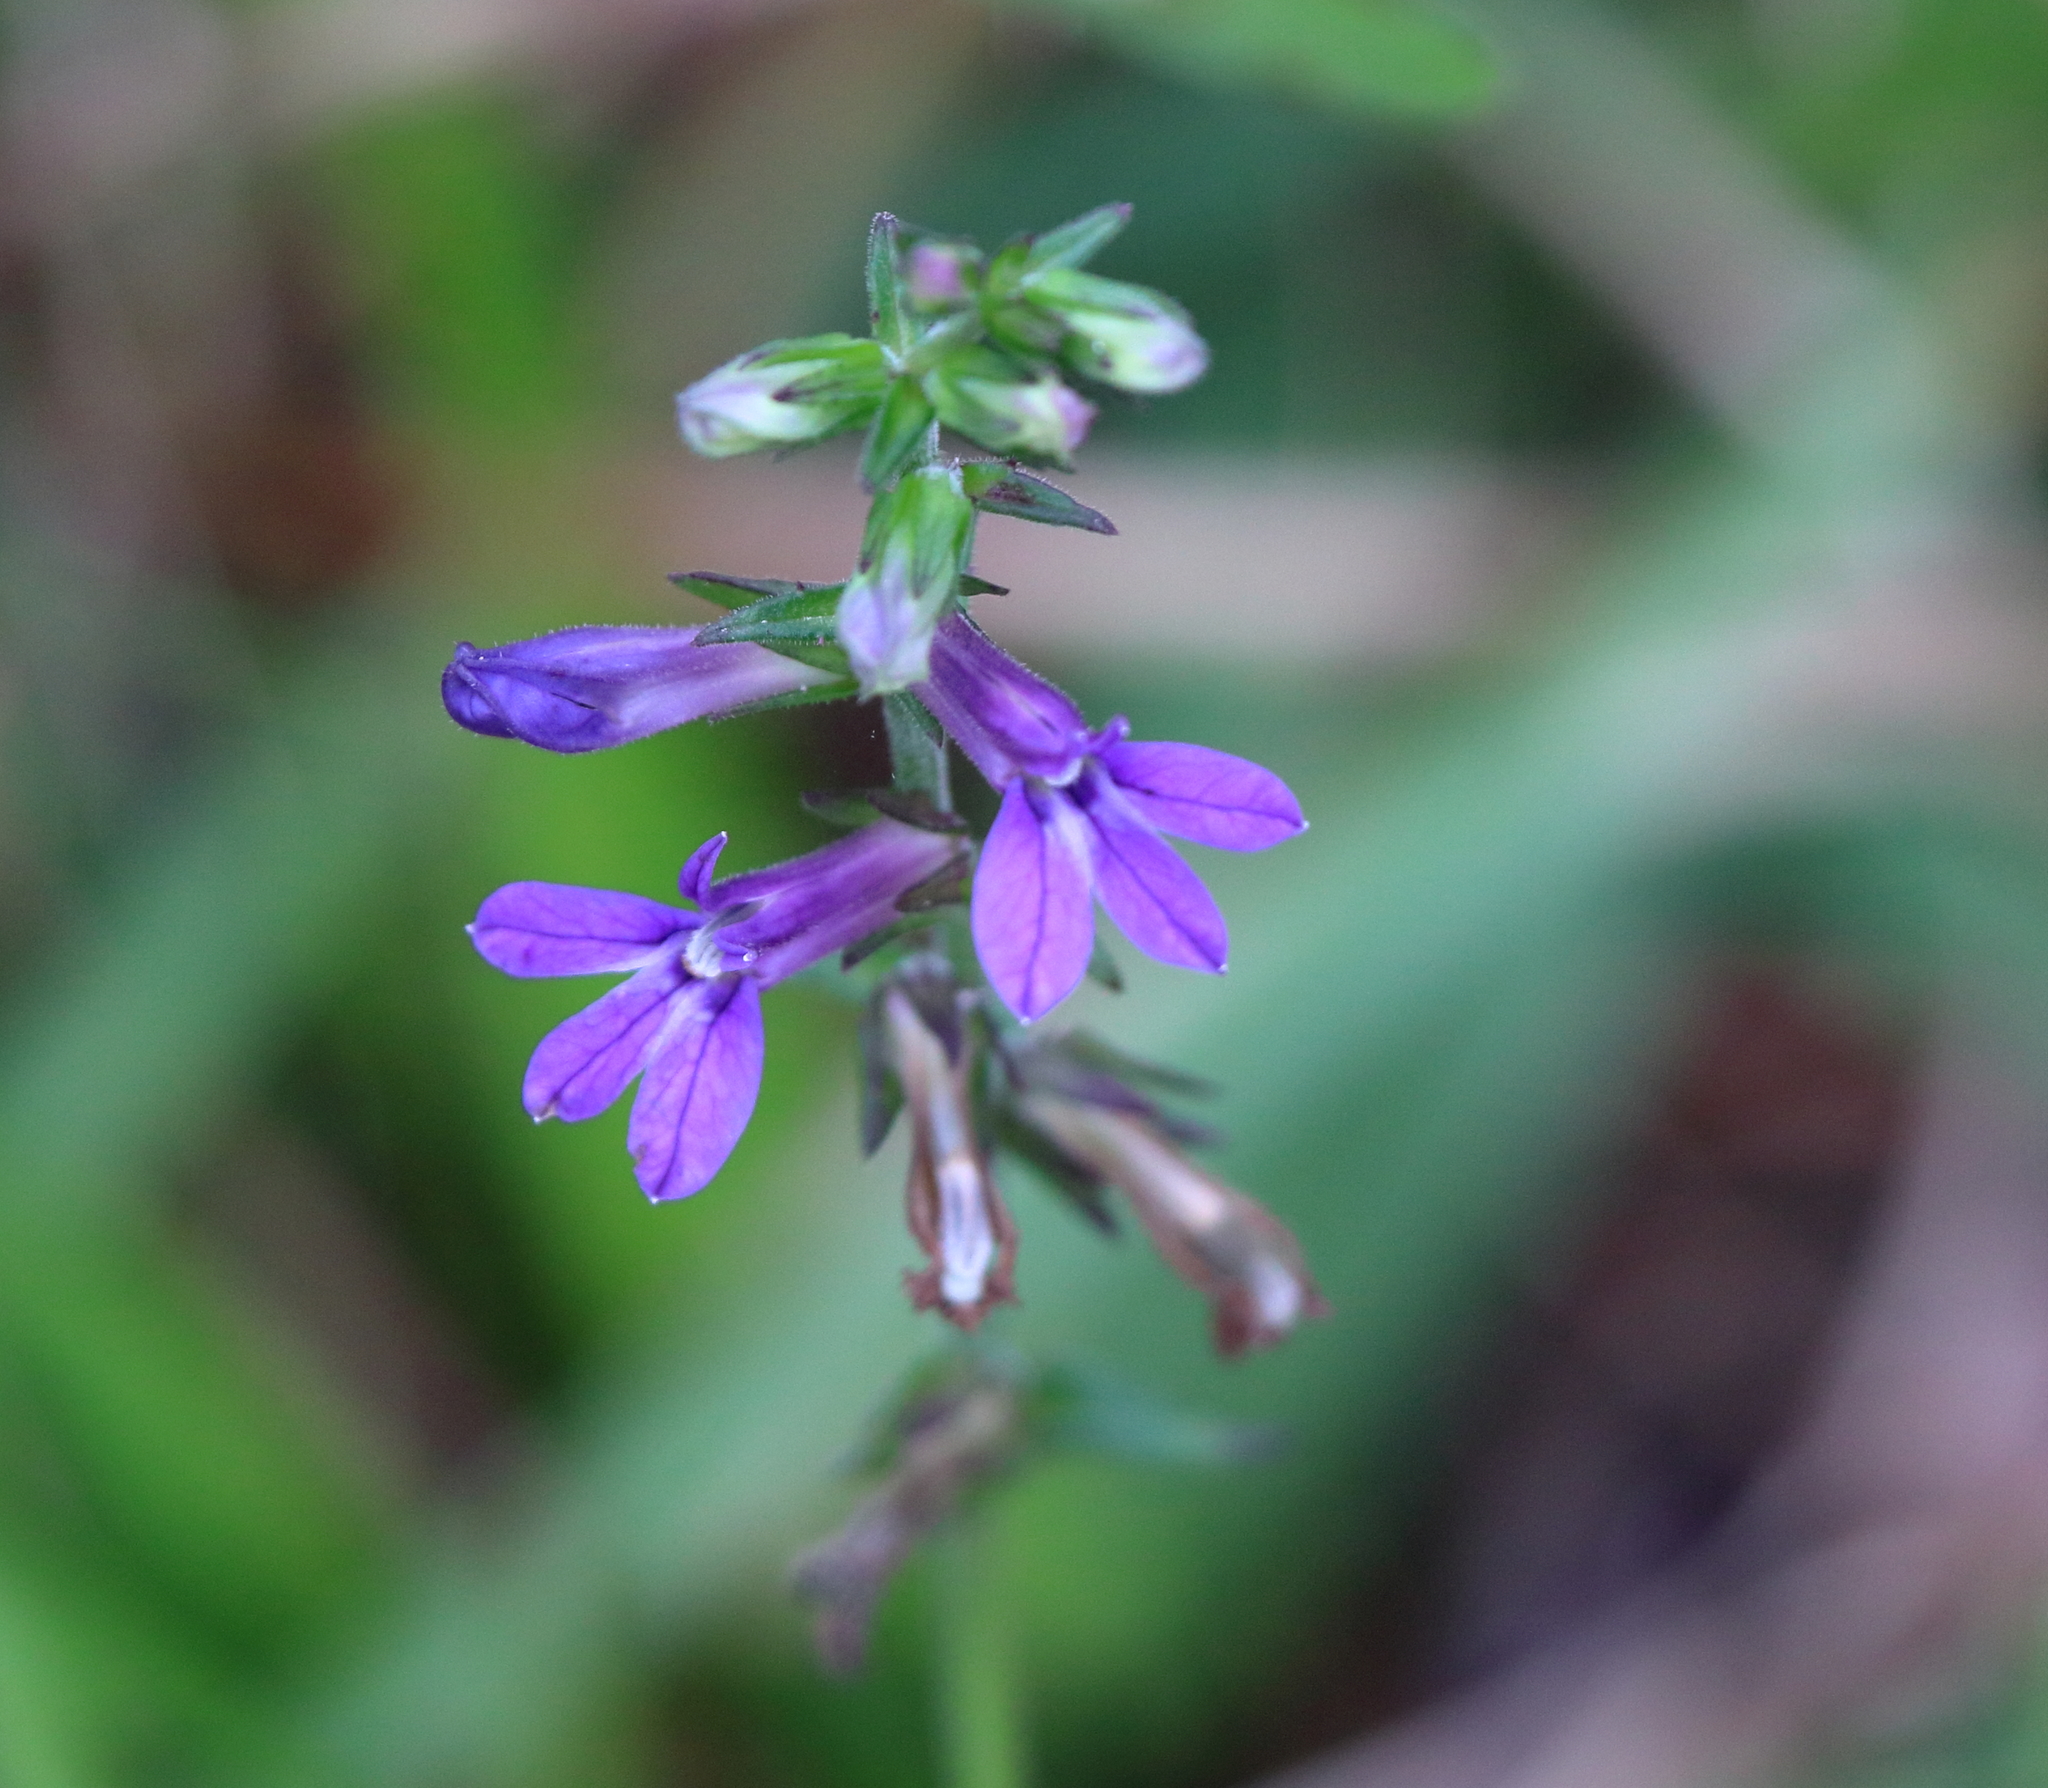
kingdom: Plantae
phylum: Tracheophyta
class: Magnoliopsida
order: Asterales
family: Campanulaceae
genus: Lobelia
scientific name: Lobelia puberula
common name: Purple dewdrop
